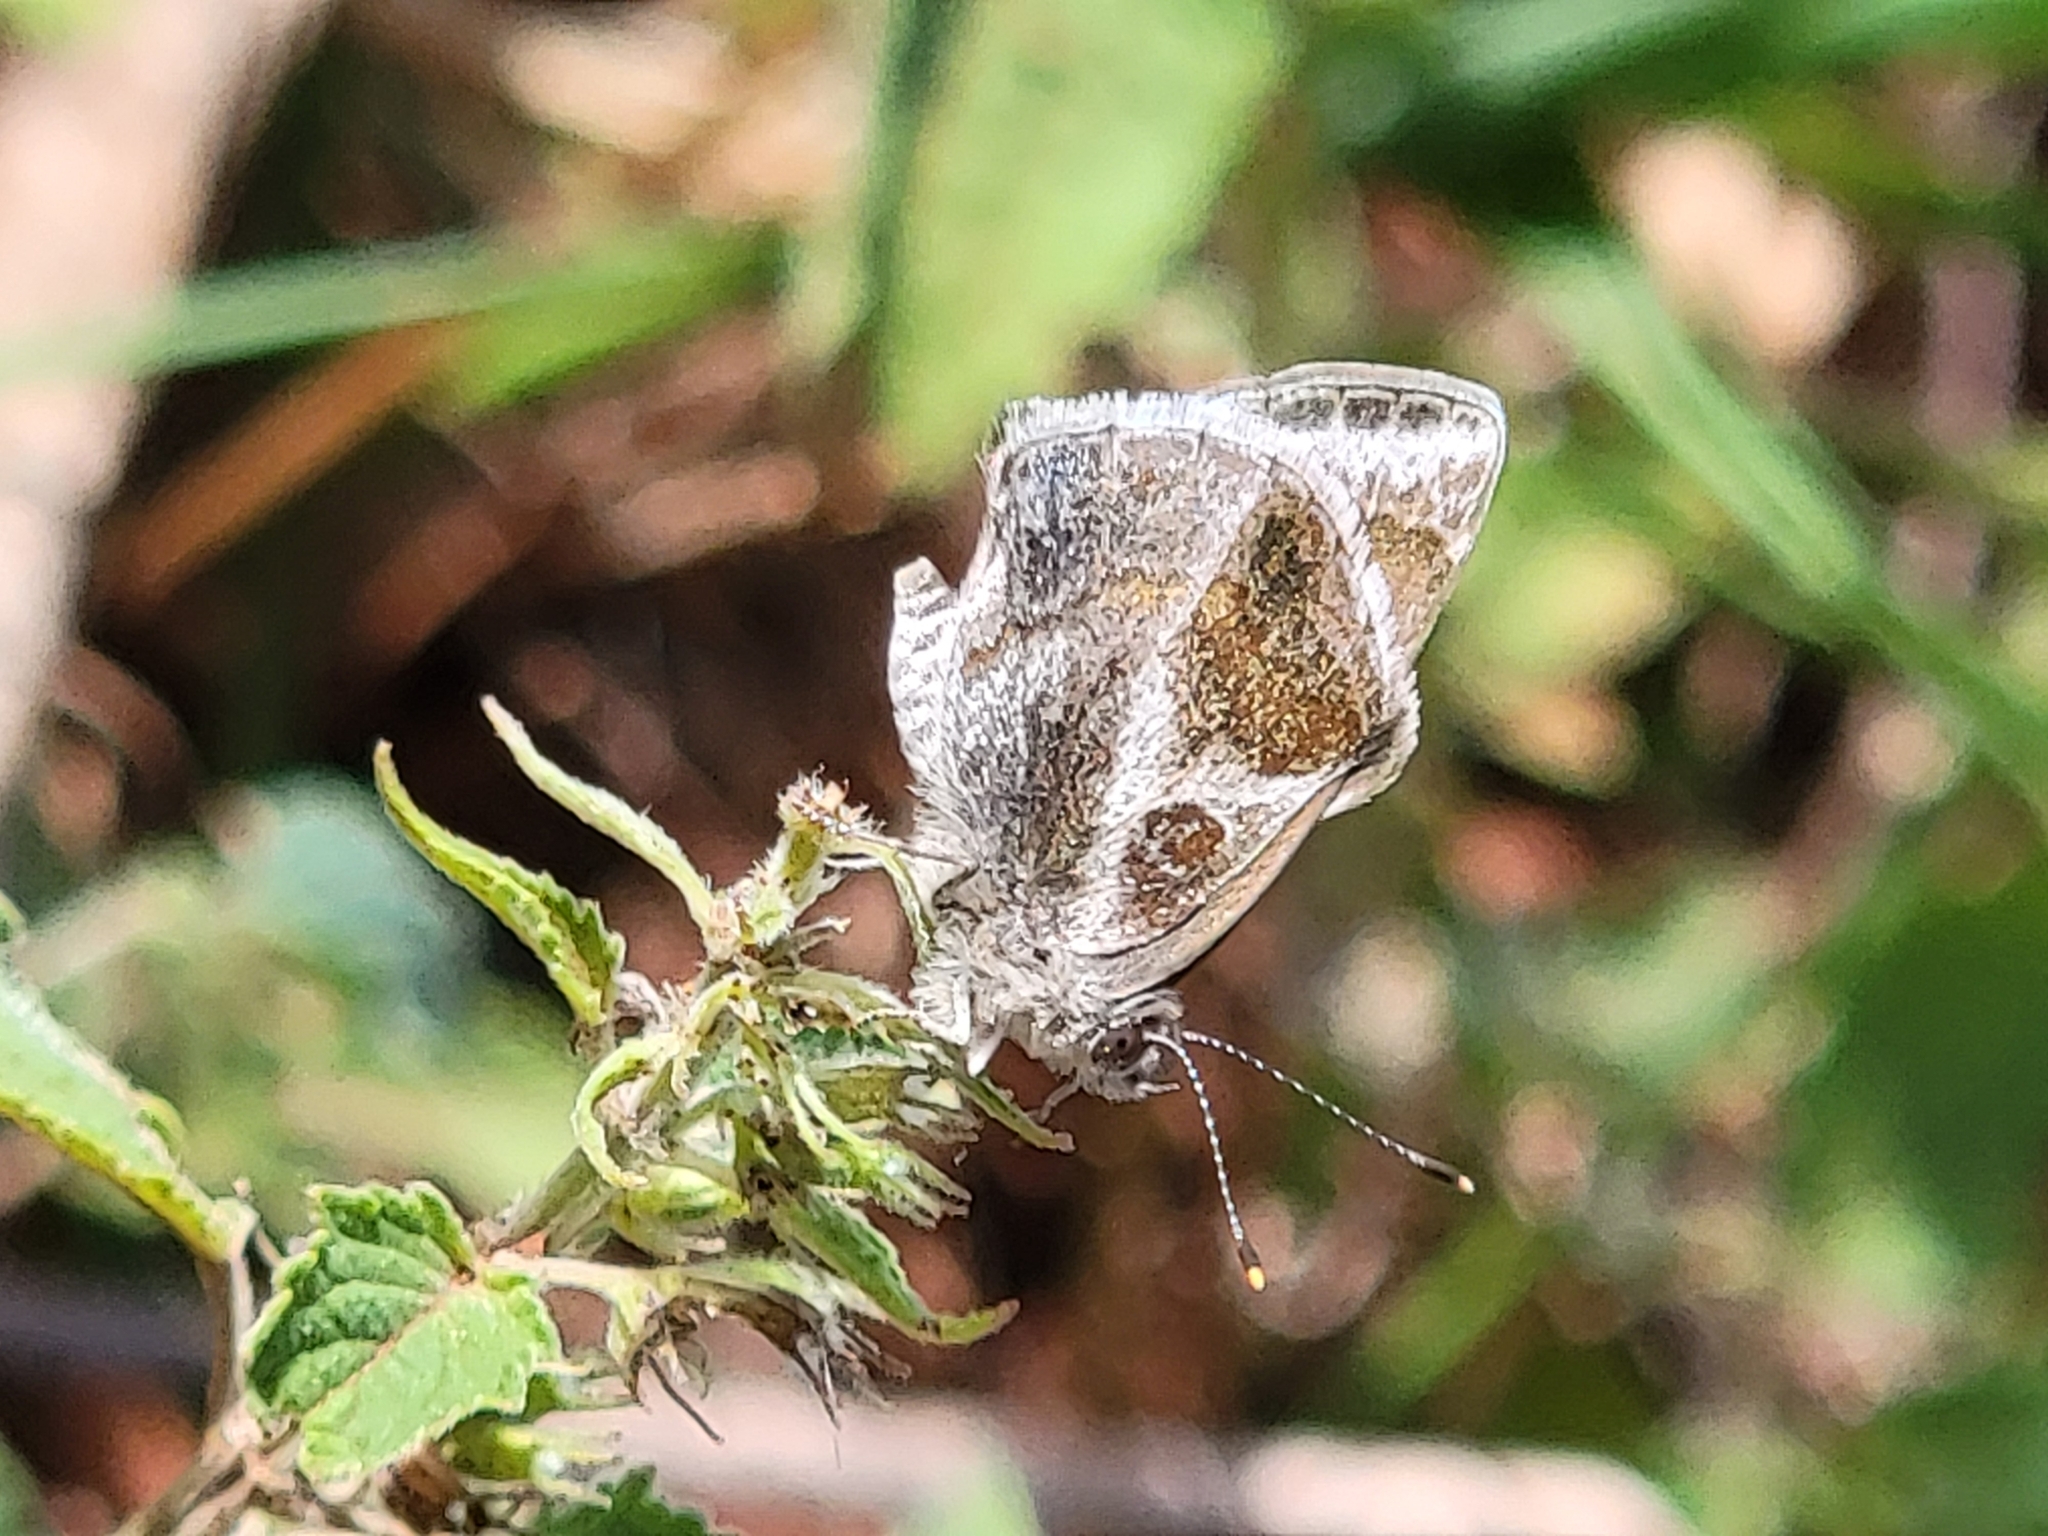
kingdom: Animalia
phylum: Arthropoda
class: Insecta
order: Lepidoptera
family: Lycaenidae
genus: Strymon
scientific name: Strymon bazochii
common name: Lantana scrub-hairstreak
